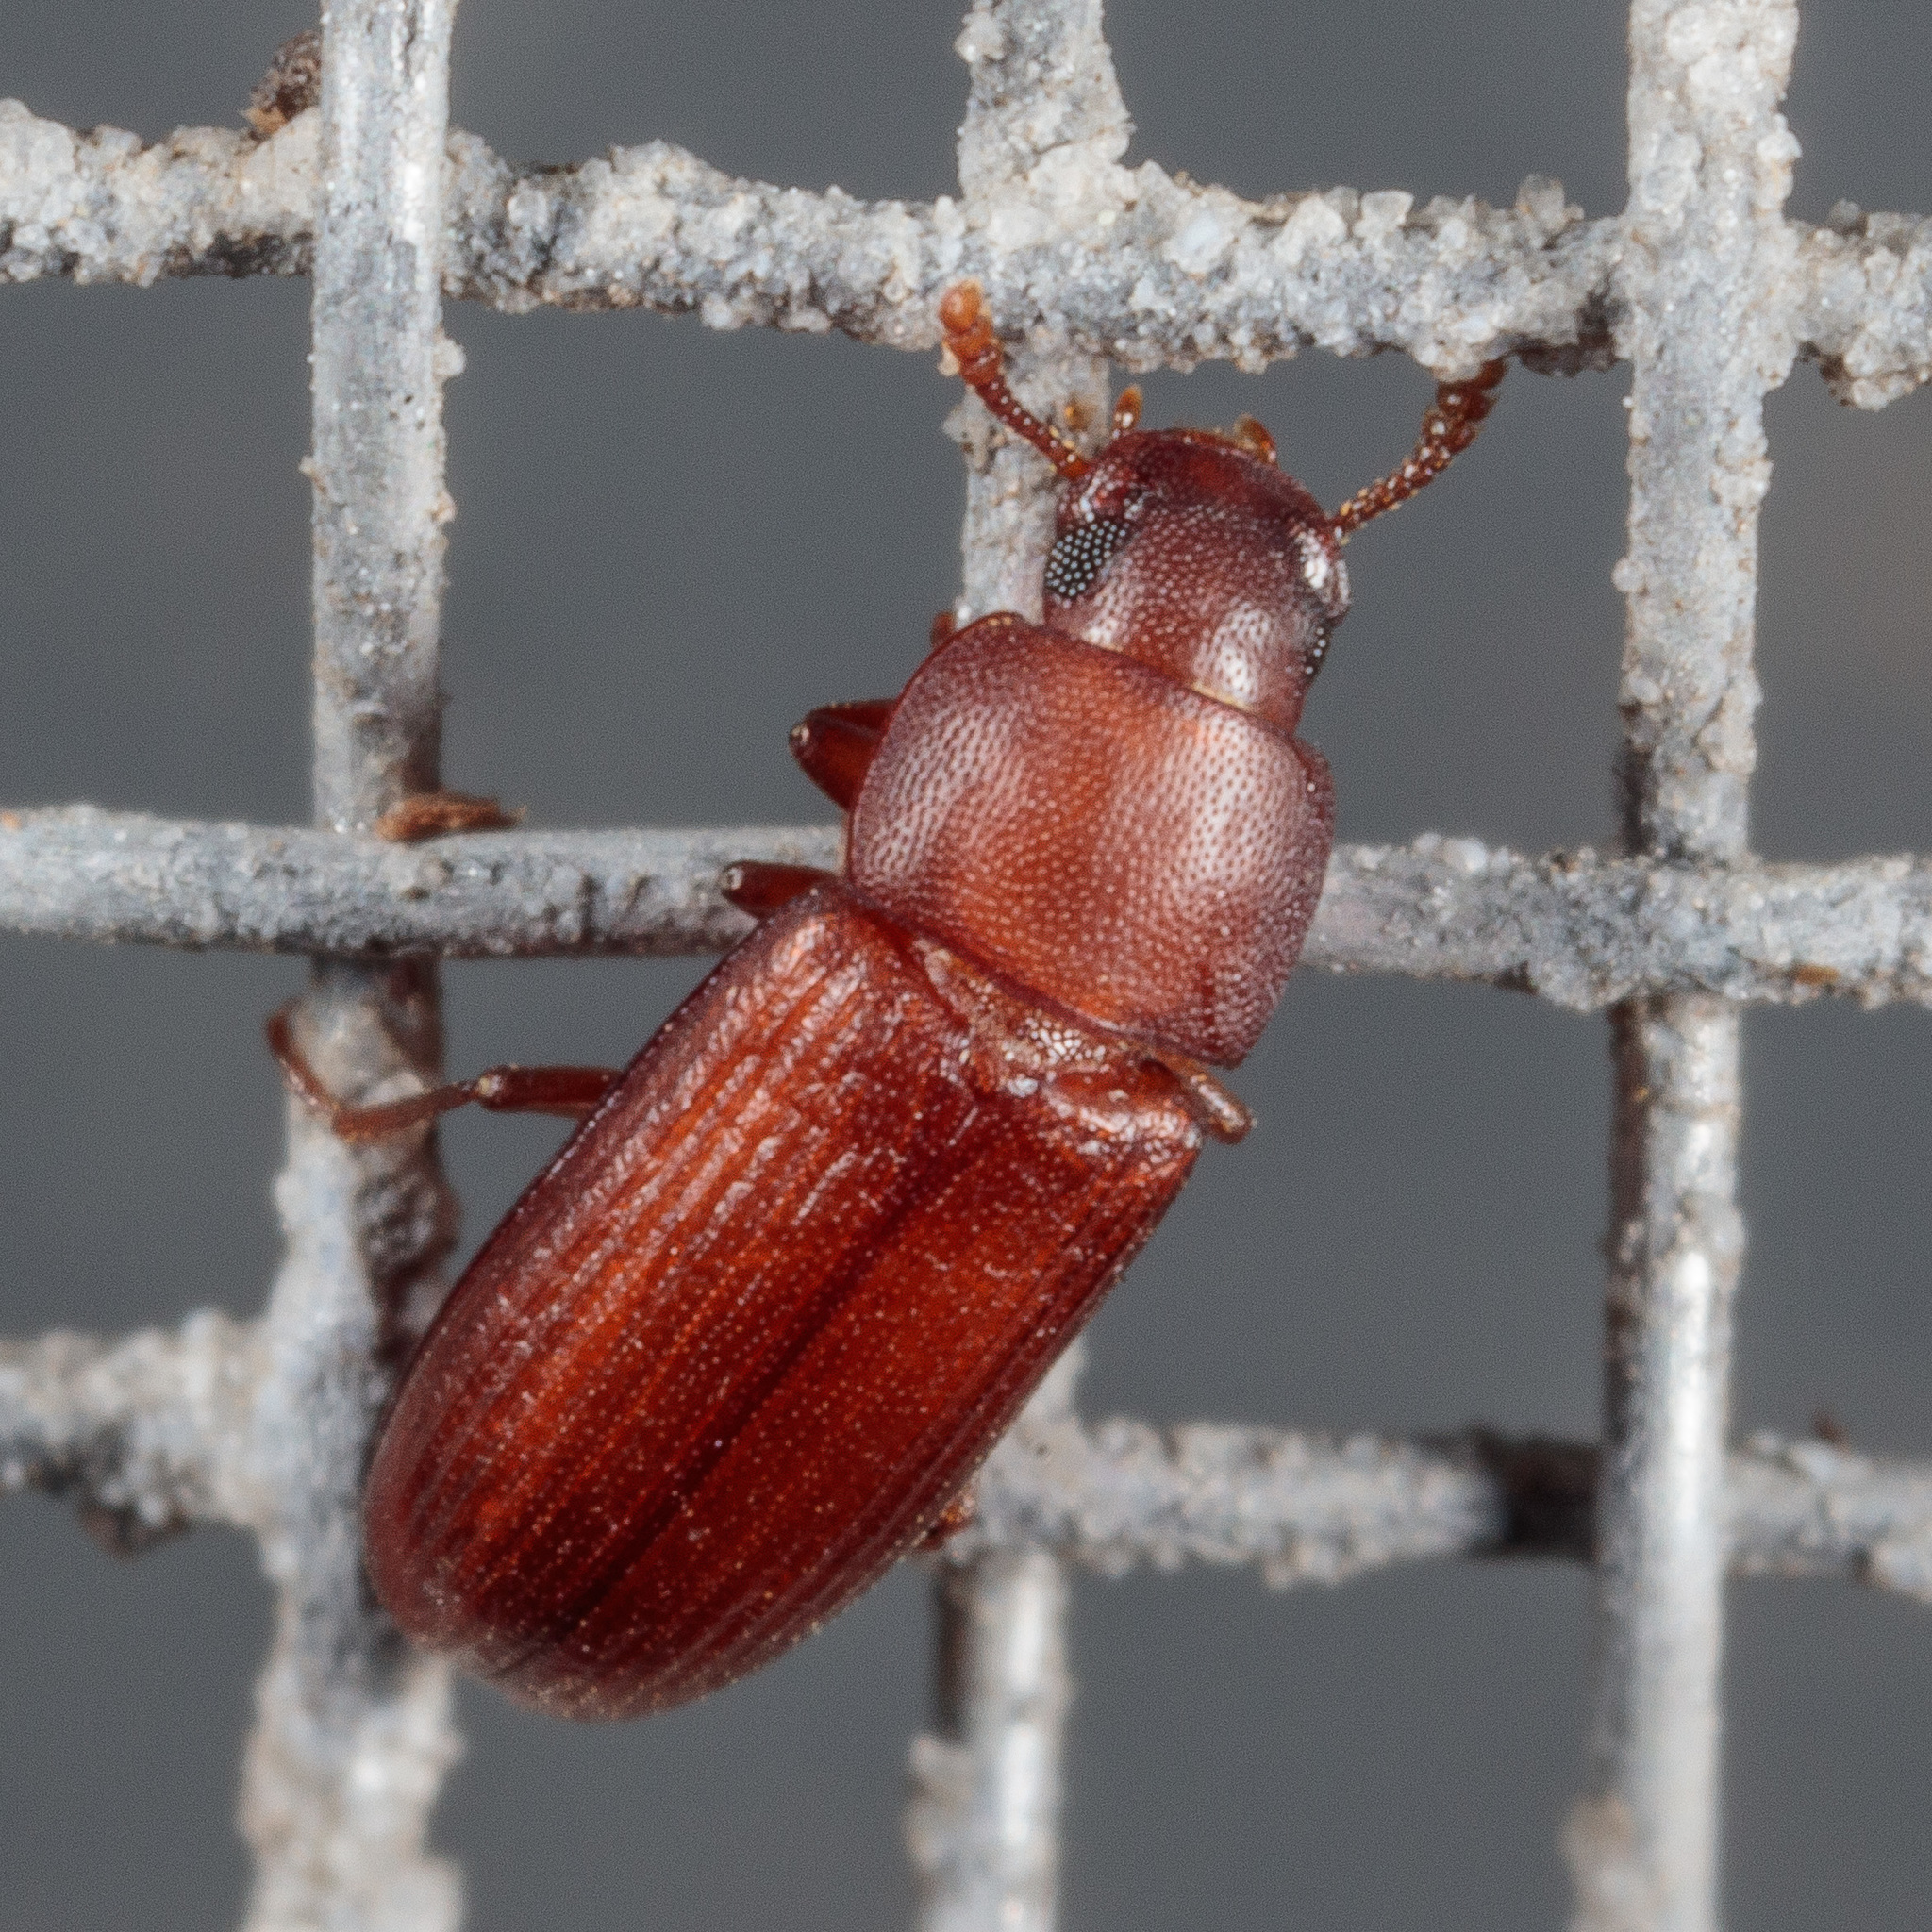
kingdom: Animalia
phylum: Arthropoda
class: Insecta
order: Coleoptera
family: Tenebrionidae
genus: Tribolium
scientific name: Tribolium castaneum
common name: Rust-red flour beetle
